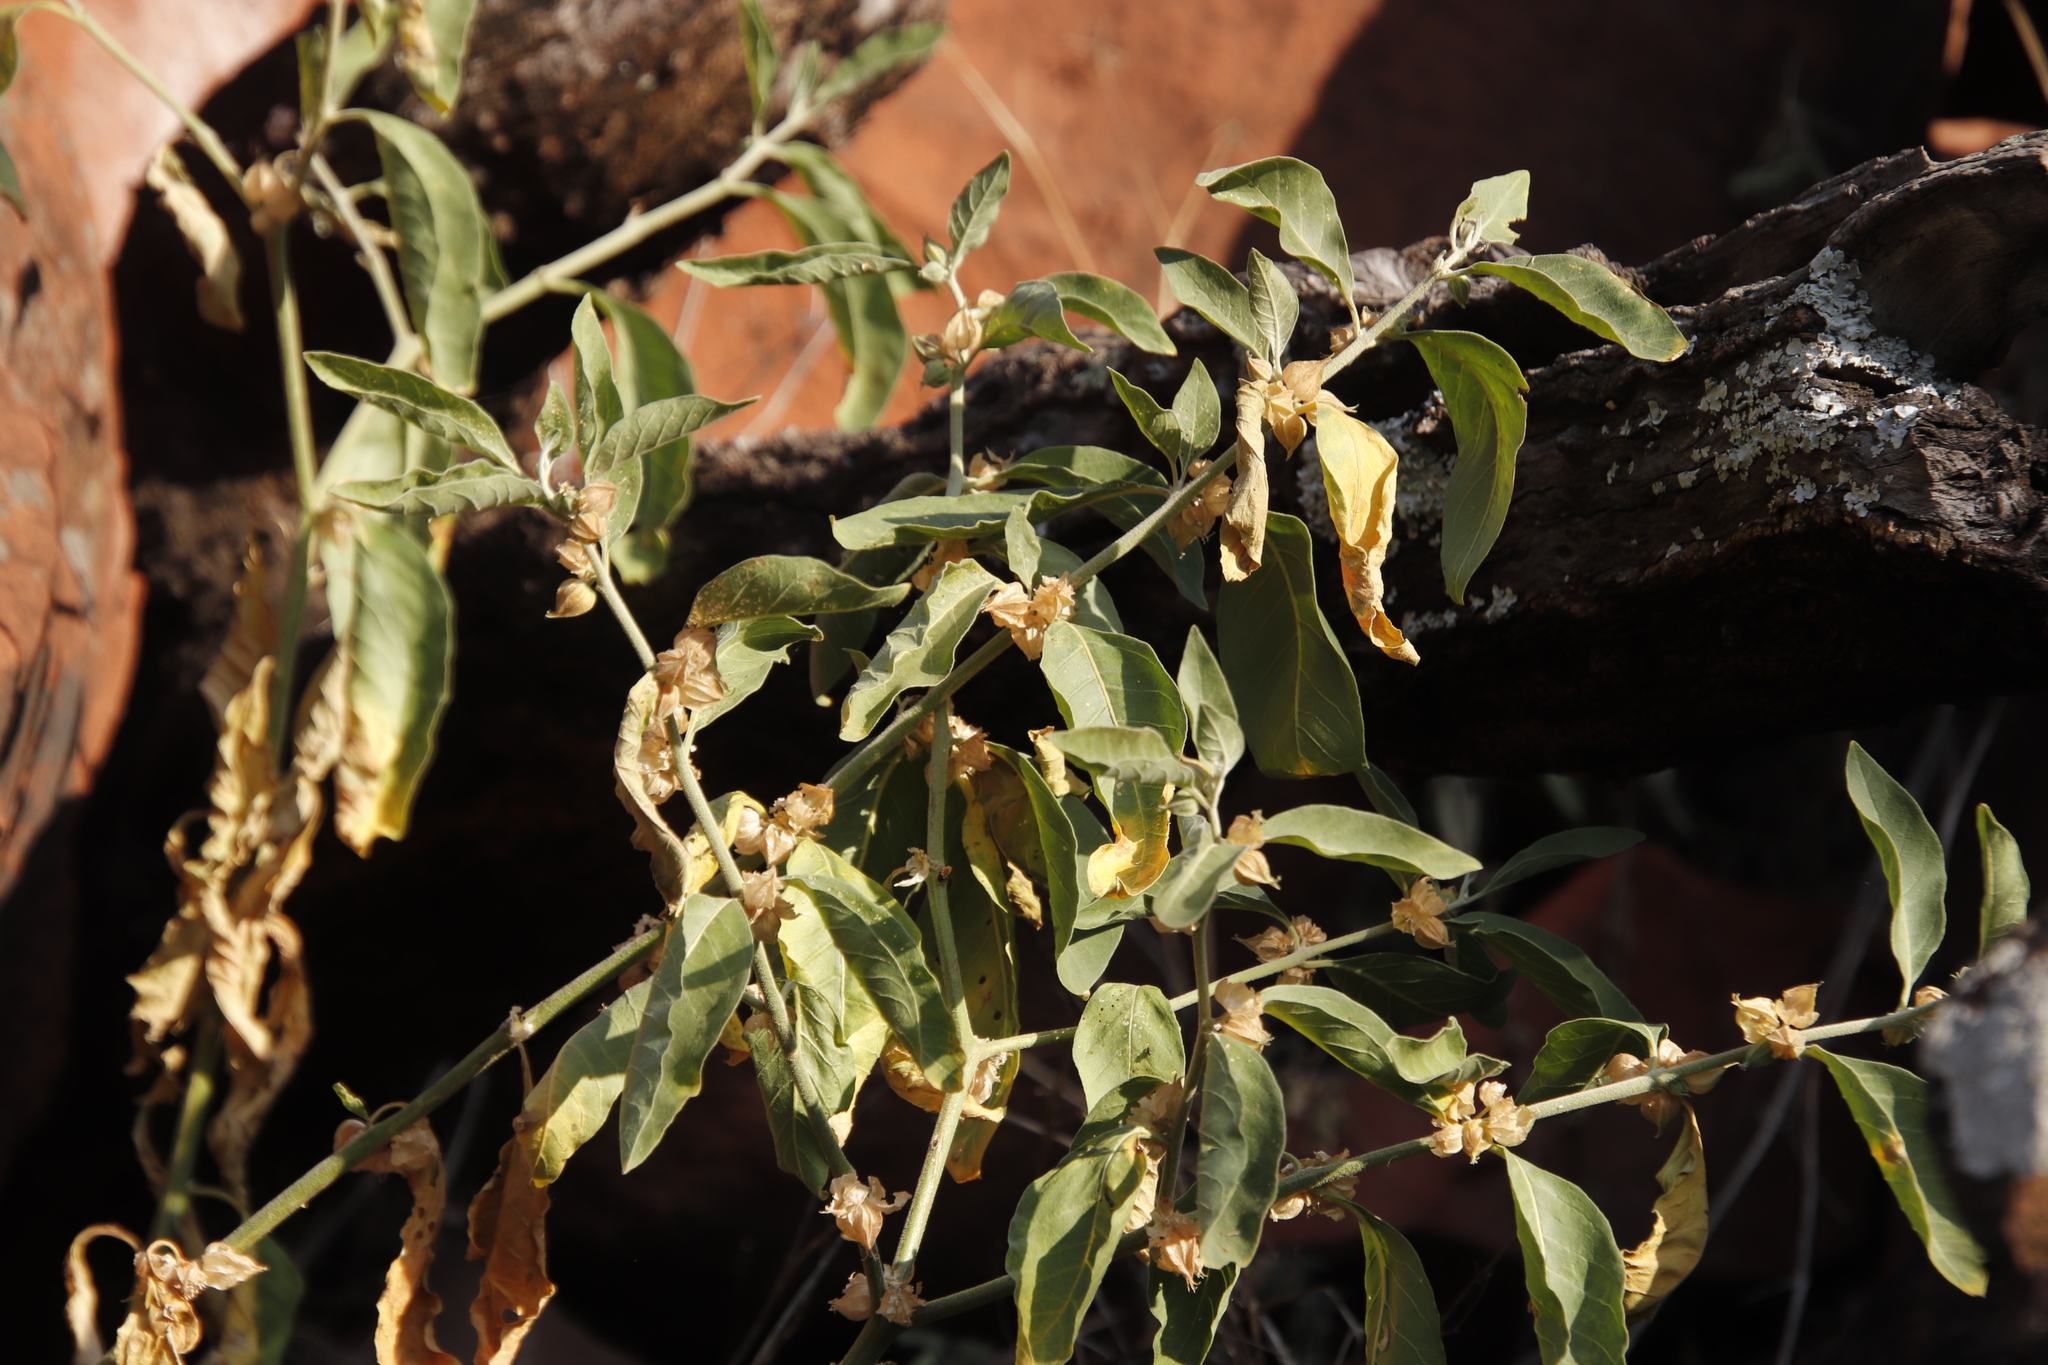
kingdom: Plantae
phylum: Tracheophyta
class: Magnoliopsida
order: Solanales
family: Solanaceae
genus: Withania
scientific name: Withania somnifera
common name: Winter-cherry
